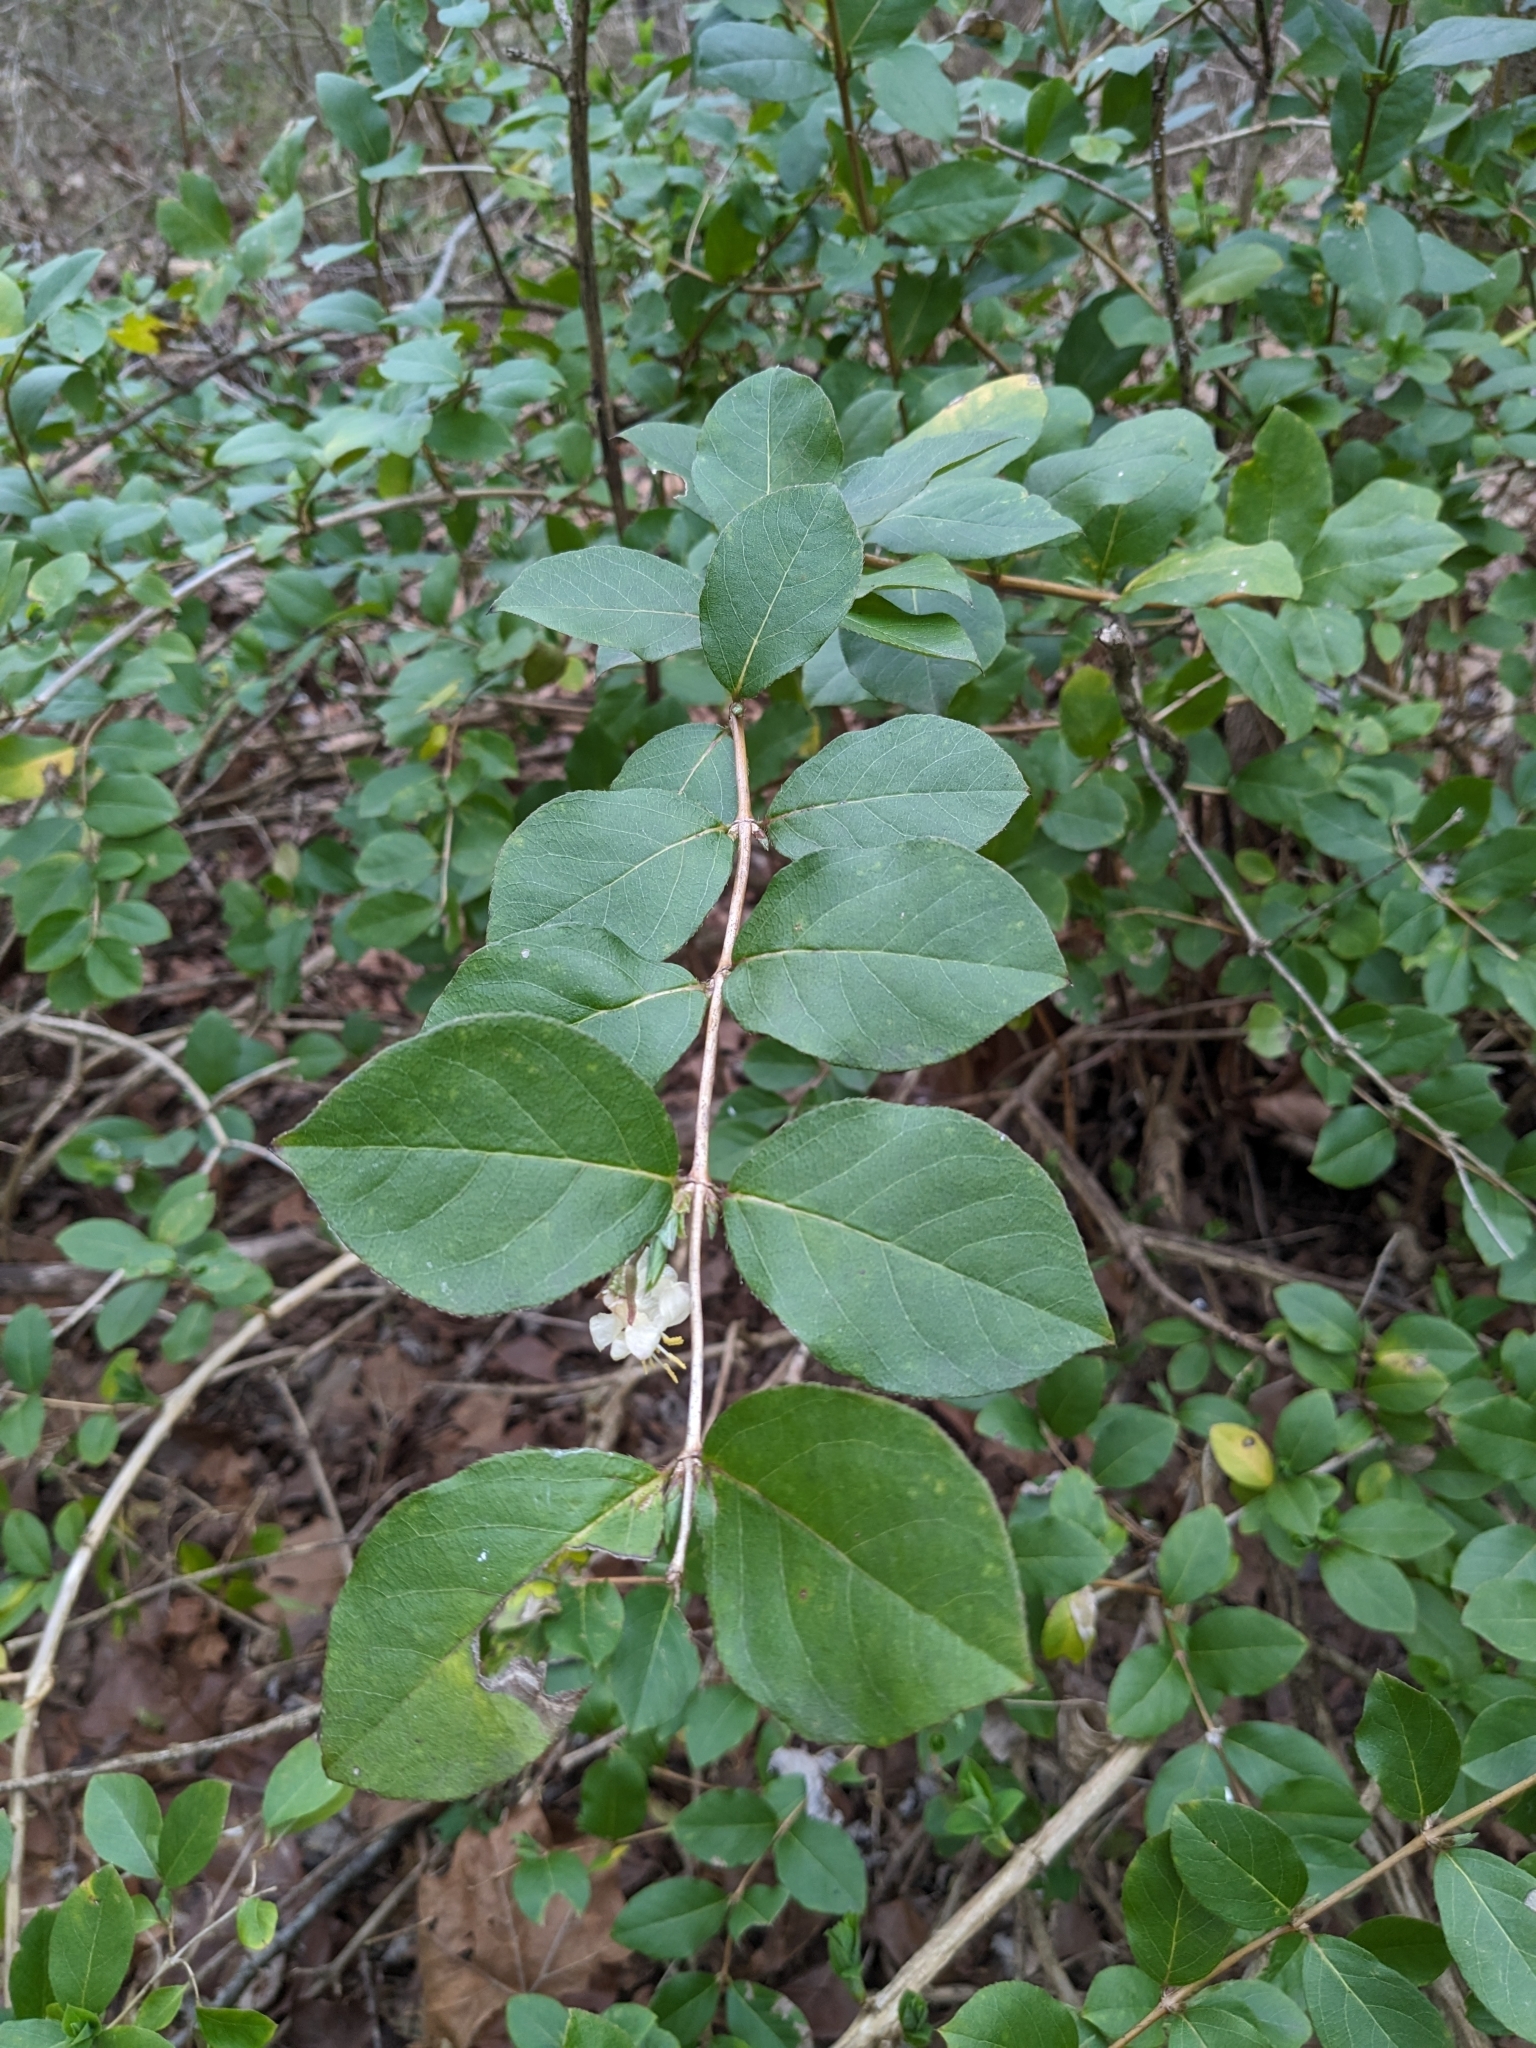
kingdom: Plantae
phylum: Tracheophyta
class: Magnoliopsida
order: Dipsacales
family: Caprifoliaceae
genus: Lonicera
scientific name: Lonicera fragrantissima
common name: Fragrant honeysuckle
